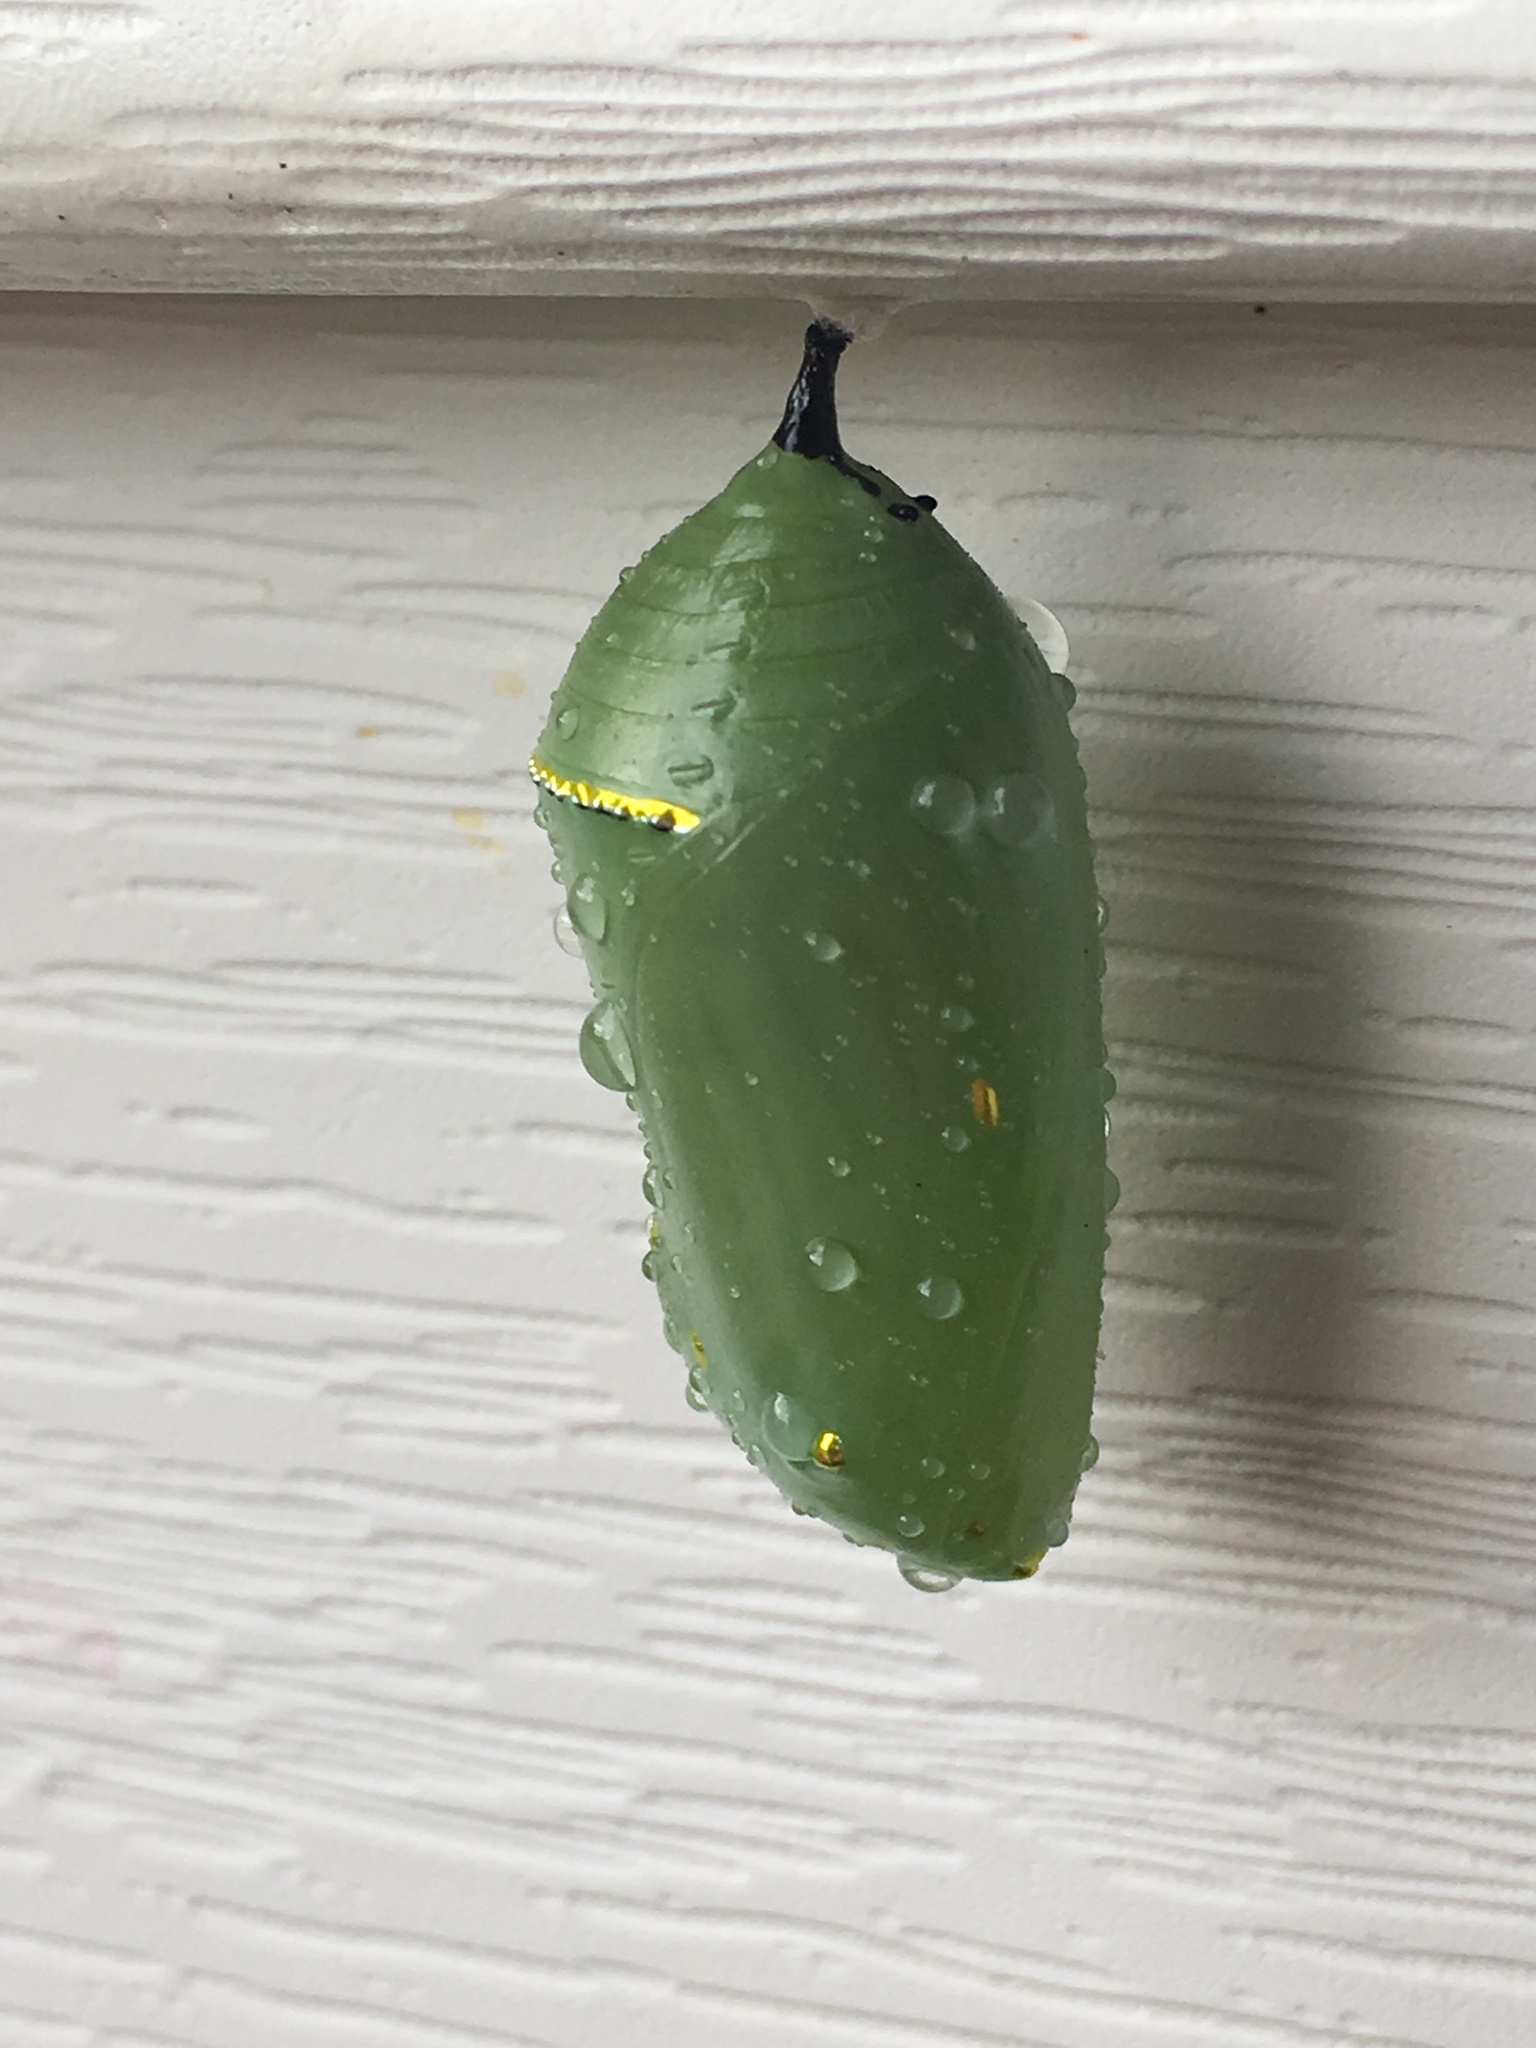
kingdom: Animalia
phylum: Arthropoda
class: Insecta
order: Lepidoptera
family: Nymphalidae
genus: Danaus
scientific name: Danaus plexippus
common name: Monarch
